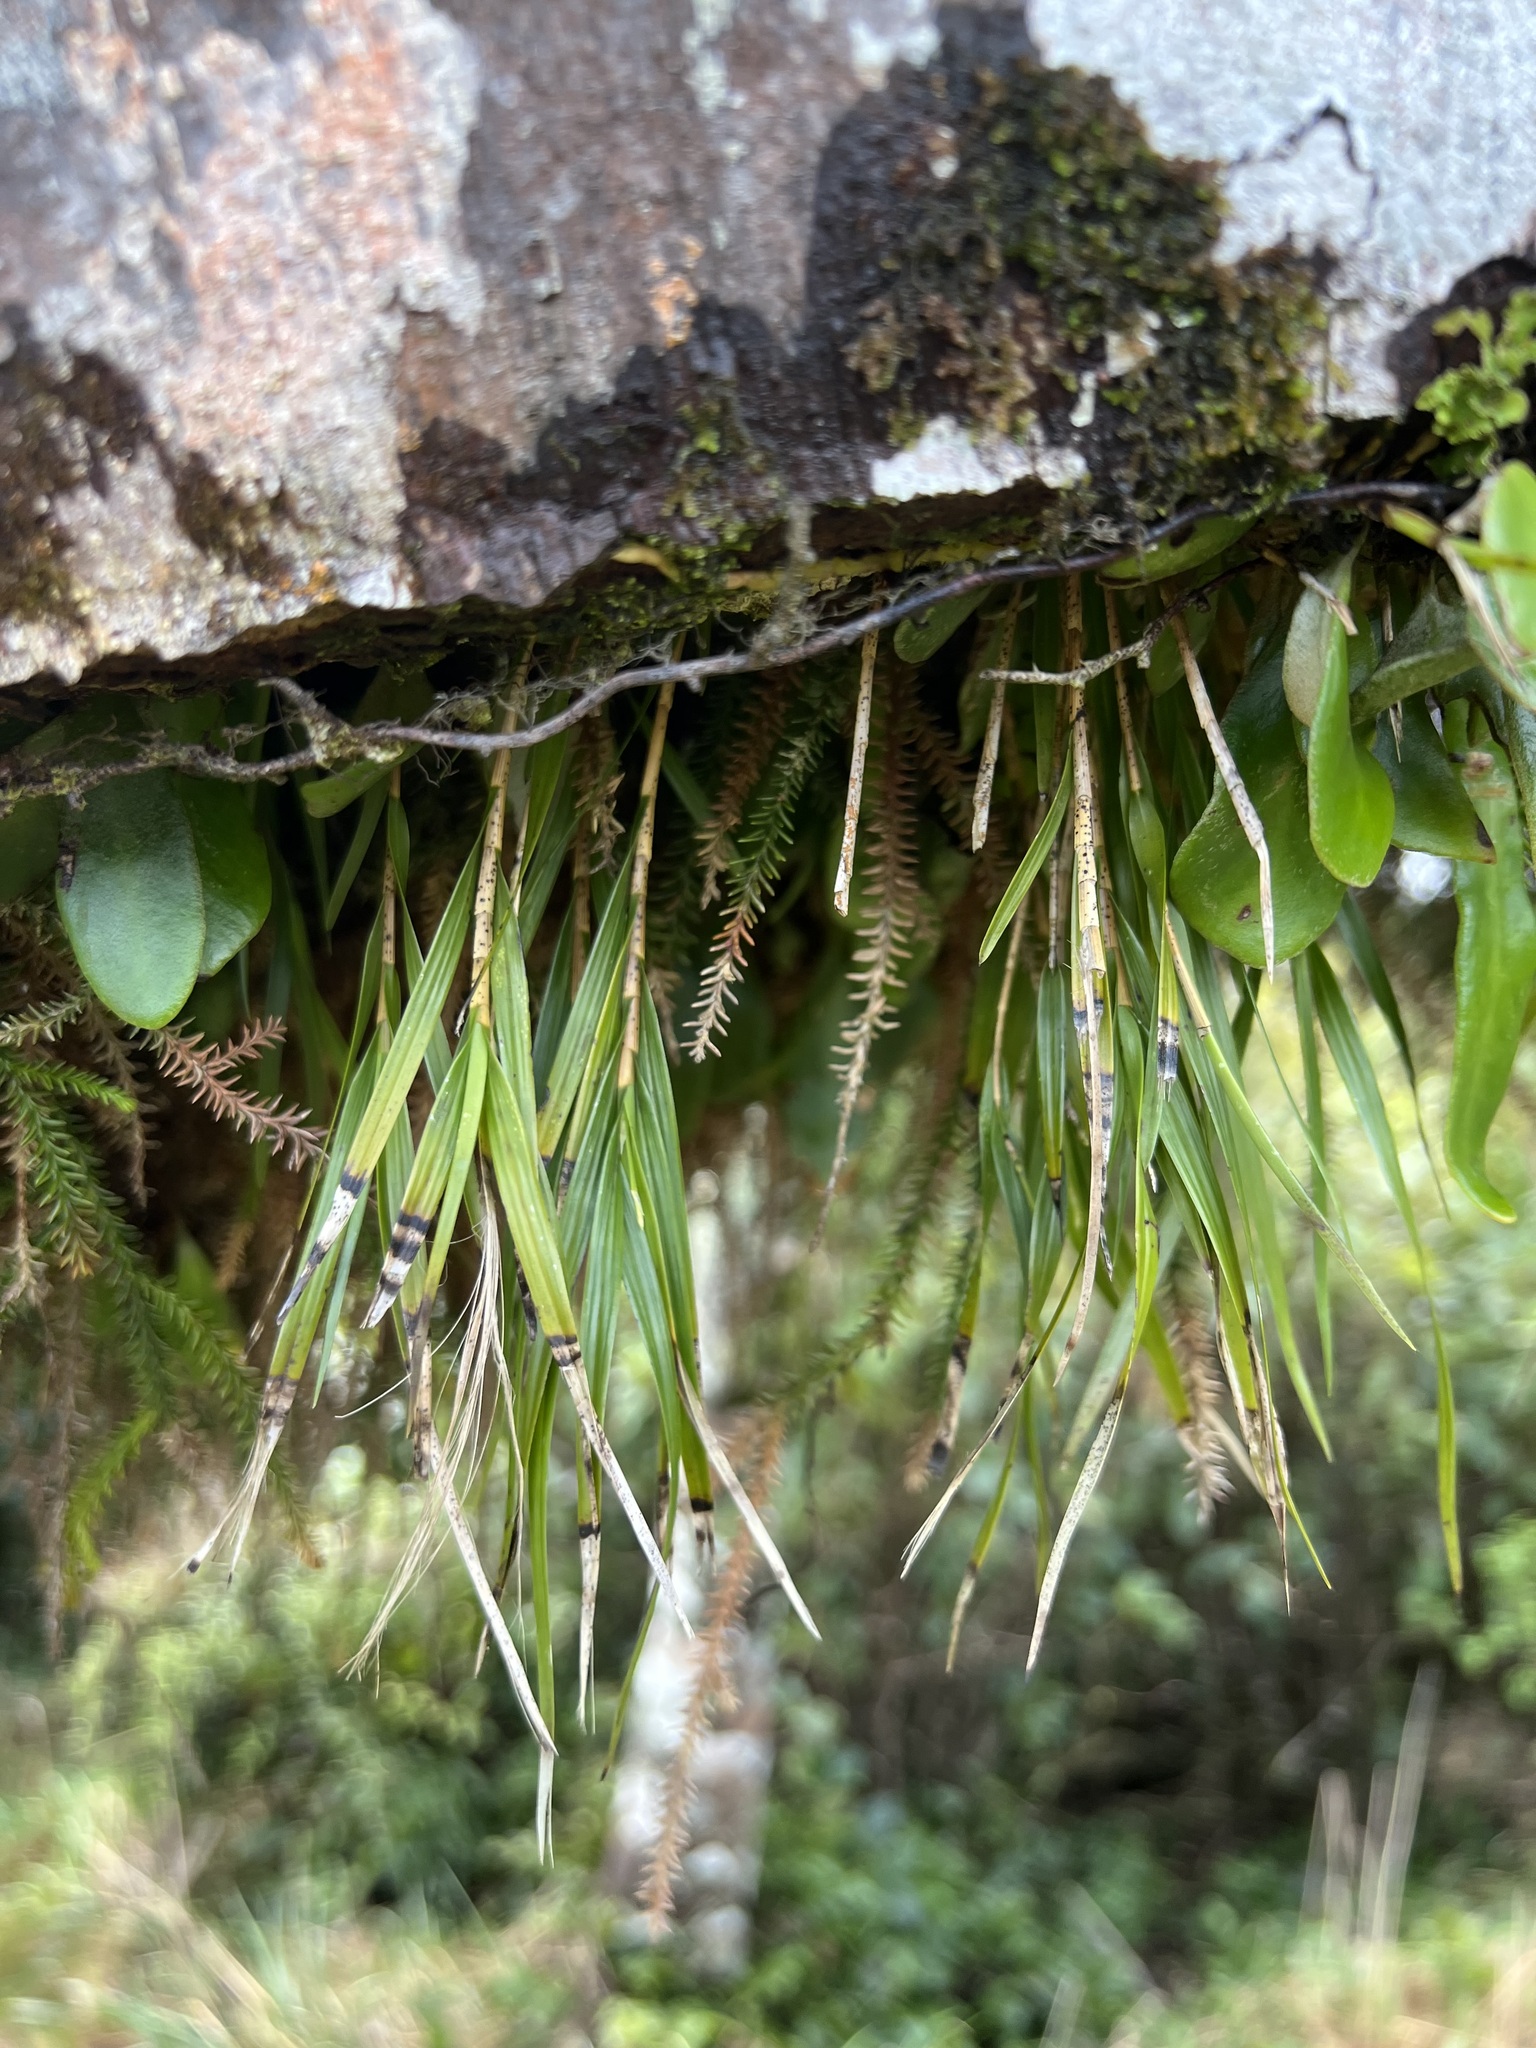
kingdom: Plantae
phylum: Tracheophyta
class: Liliopsida
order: Asparagales
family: Orchidaceae
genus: Earina
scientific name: Earina mucronata
